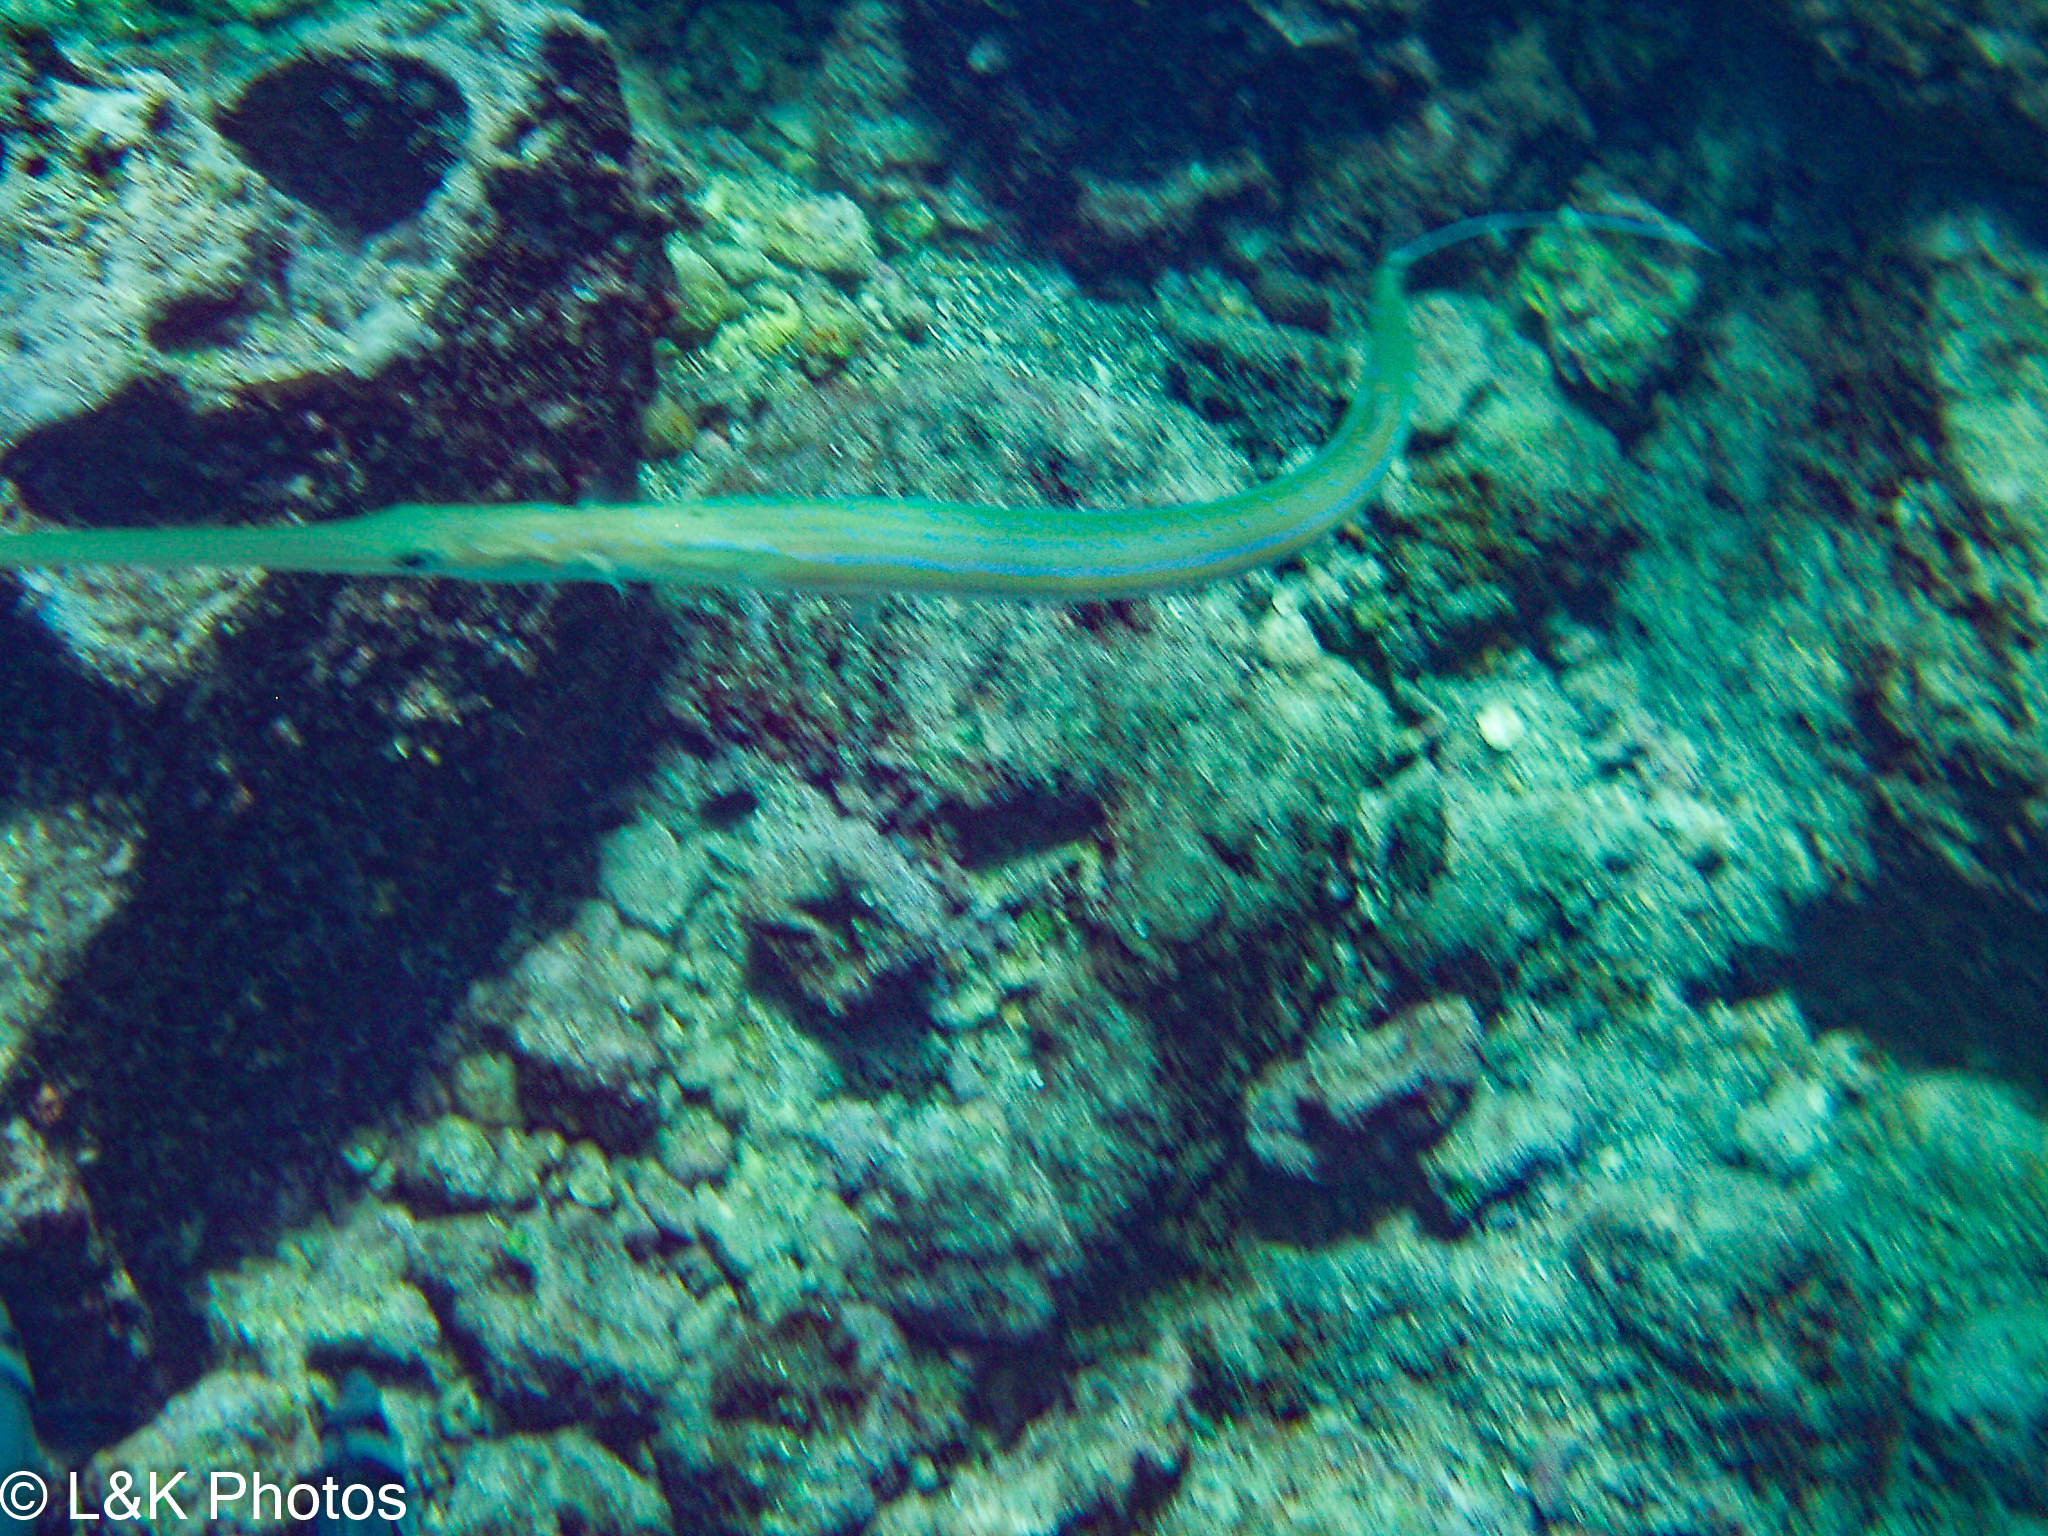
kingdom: Animalia
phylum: Chordata
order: Syngnathiformes
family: Fistulariidae
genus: Fistularia
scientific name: Fistularia commersonii
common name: Bluespotted cornetfish
